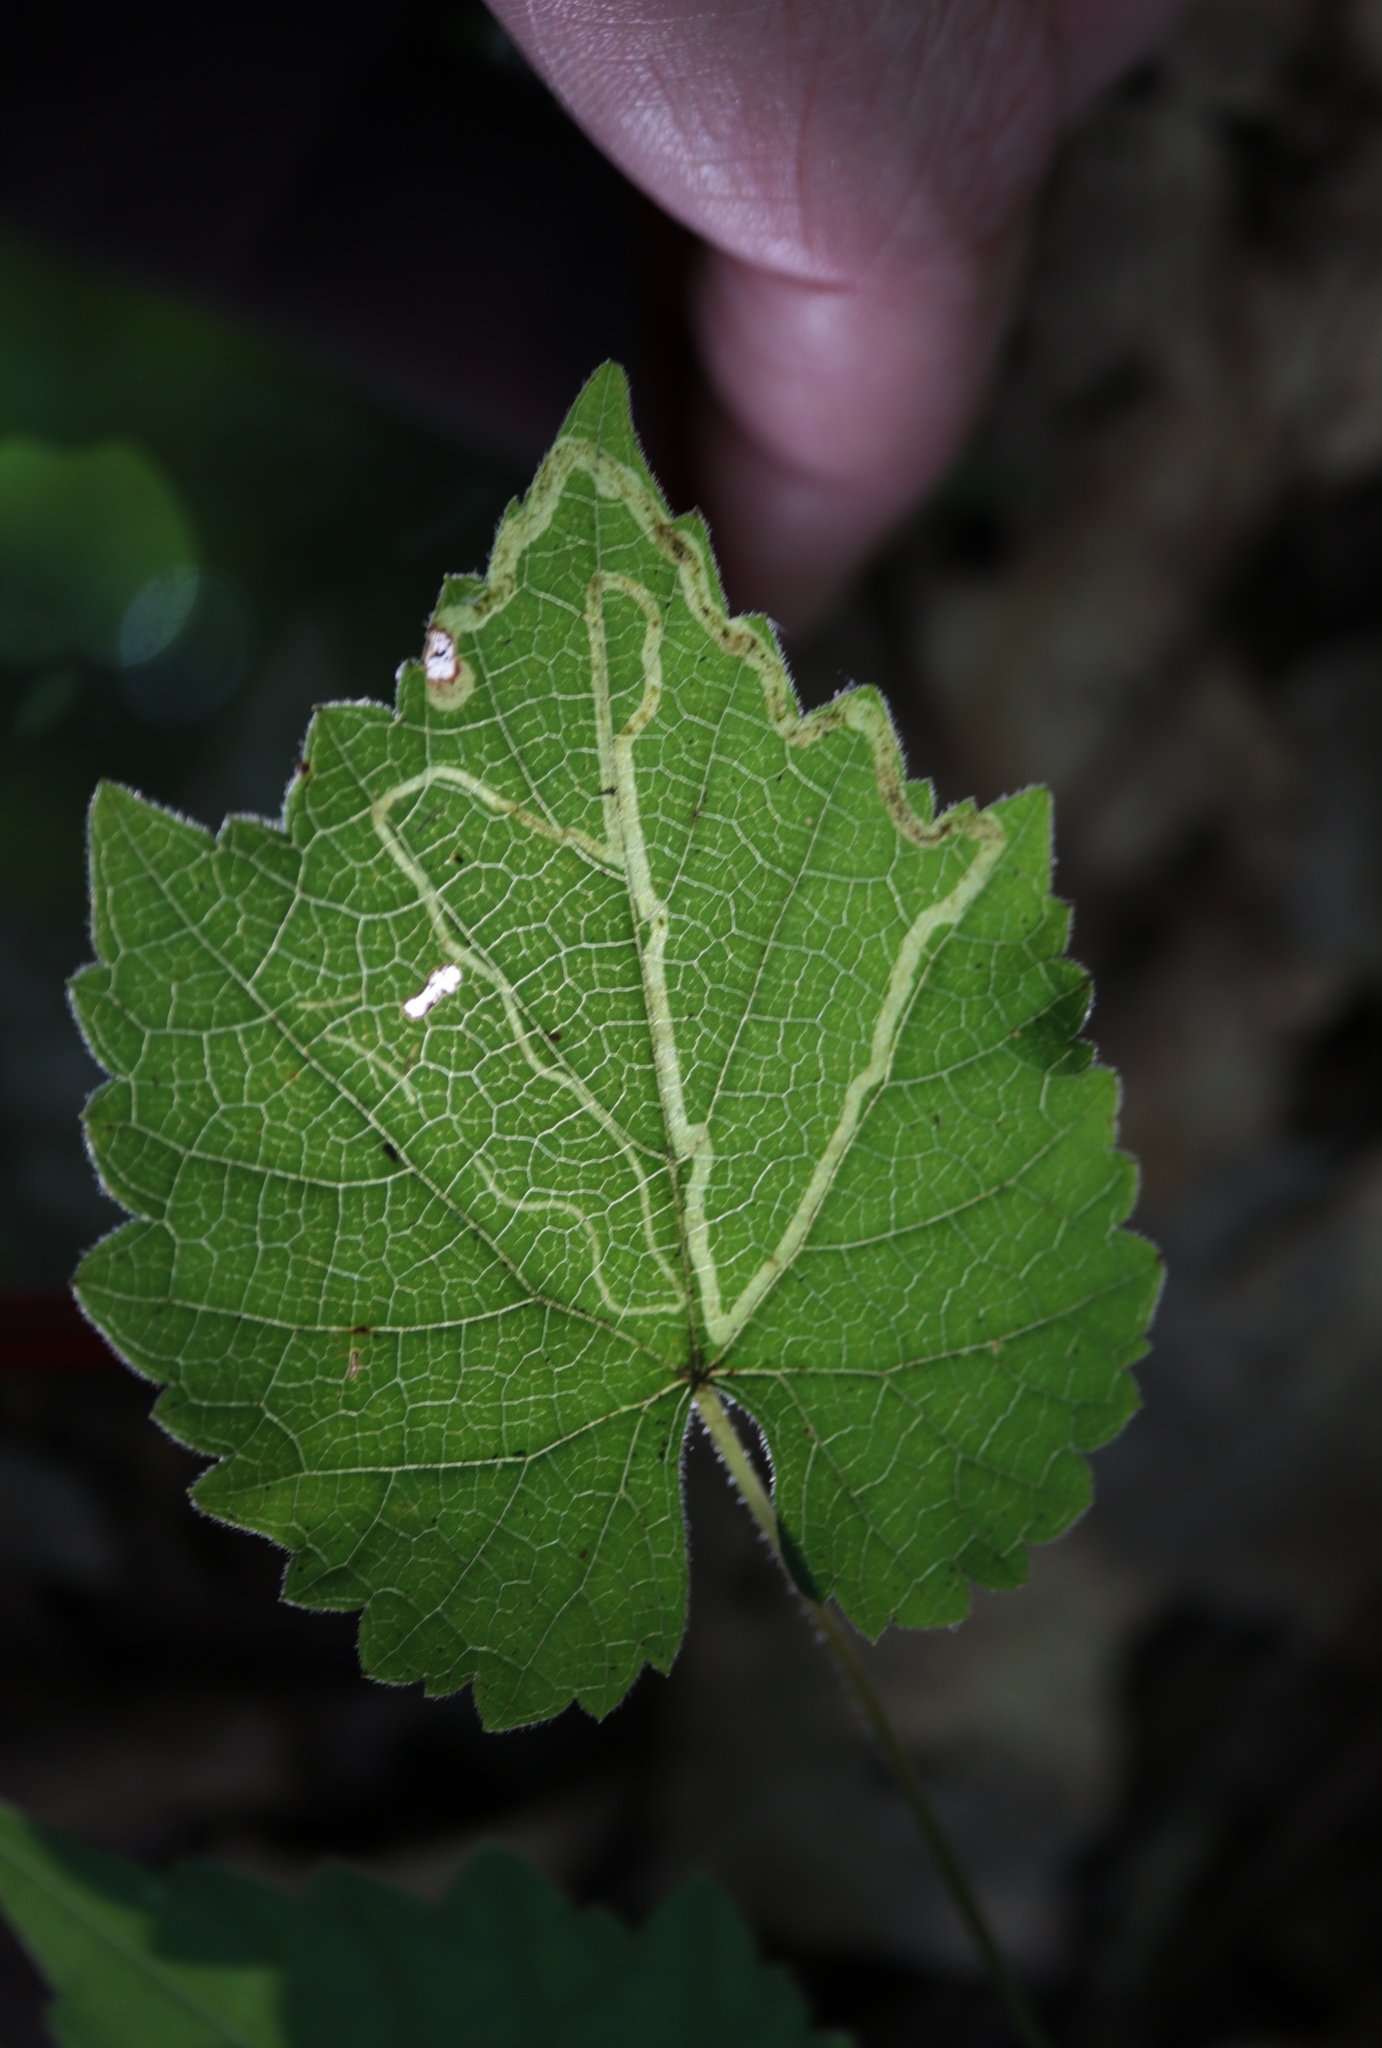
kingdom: Animalia
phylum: Arthropoda
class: Insecta
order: Lepidoptera
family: Gracillariidae
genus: Phyllocnistis
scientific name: Phyllocnistis vitifoliella
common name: Grape leaf-miner moth
